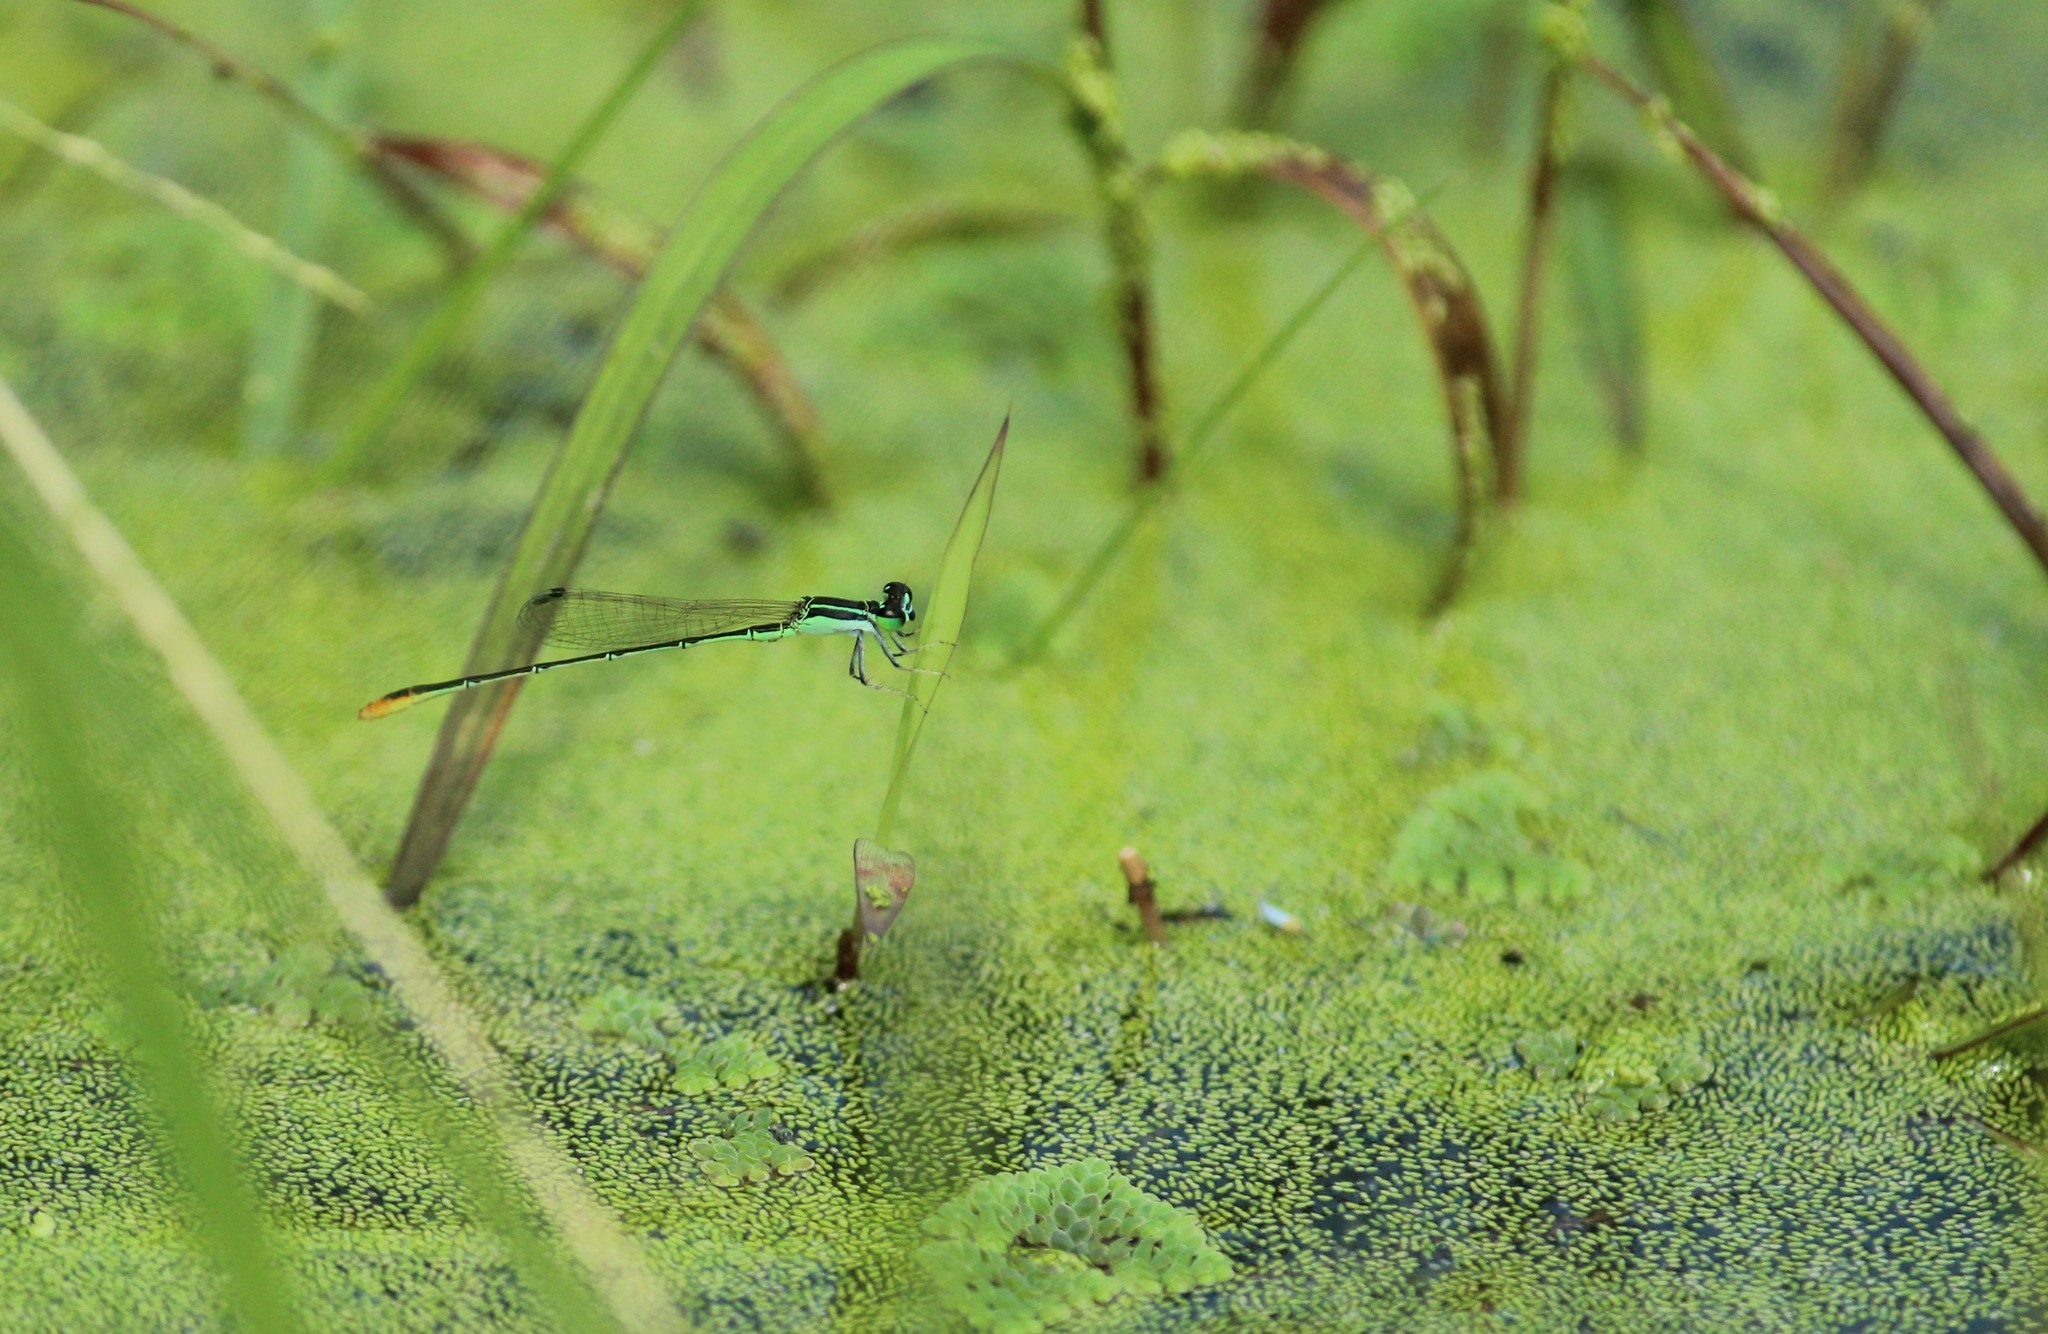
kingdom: Animalia
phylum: Arthropoda
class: Insecta
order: Odonata
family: Coenagrionidae
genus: Agriocnemis
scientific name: Agriocnemis pygmaea
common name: Pygmy wisp
